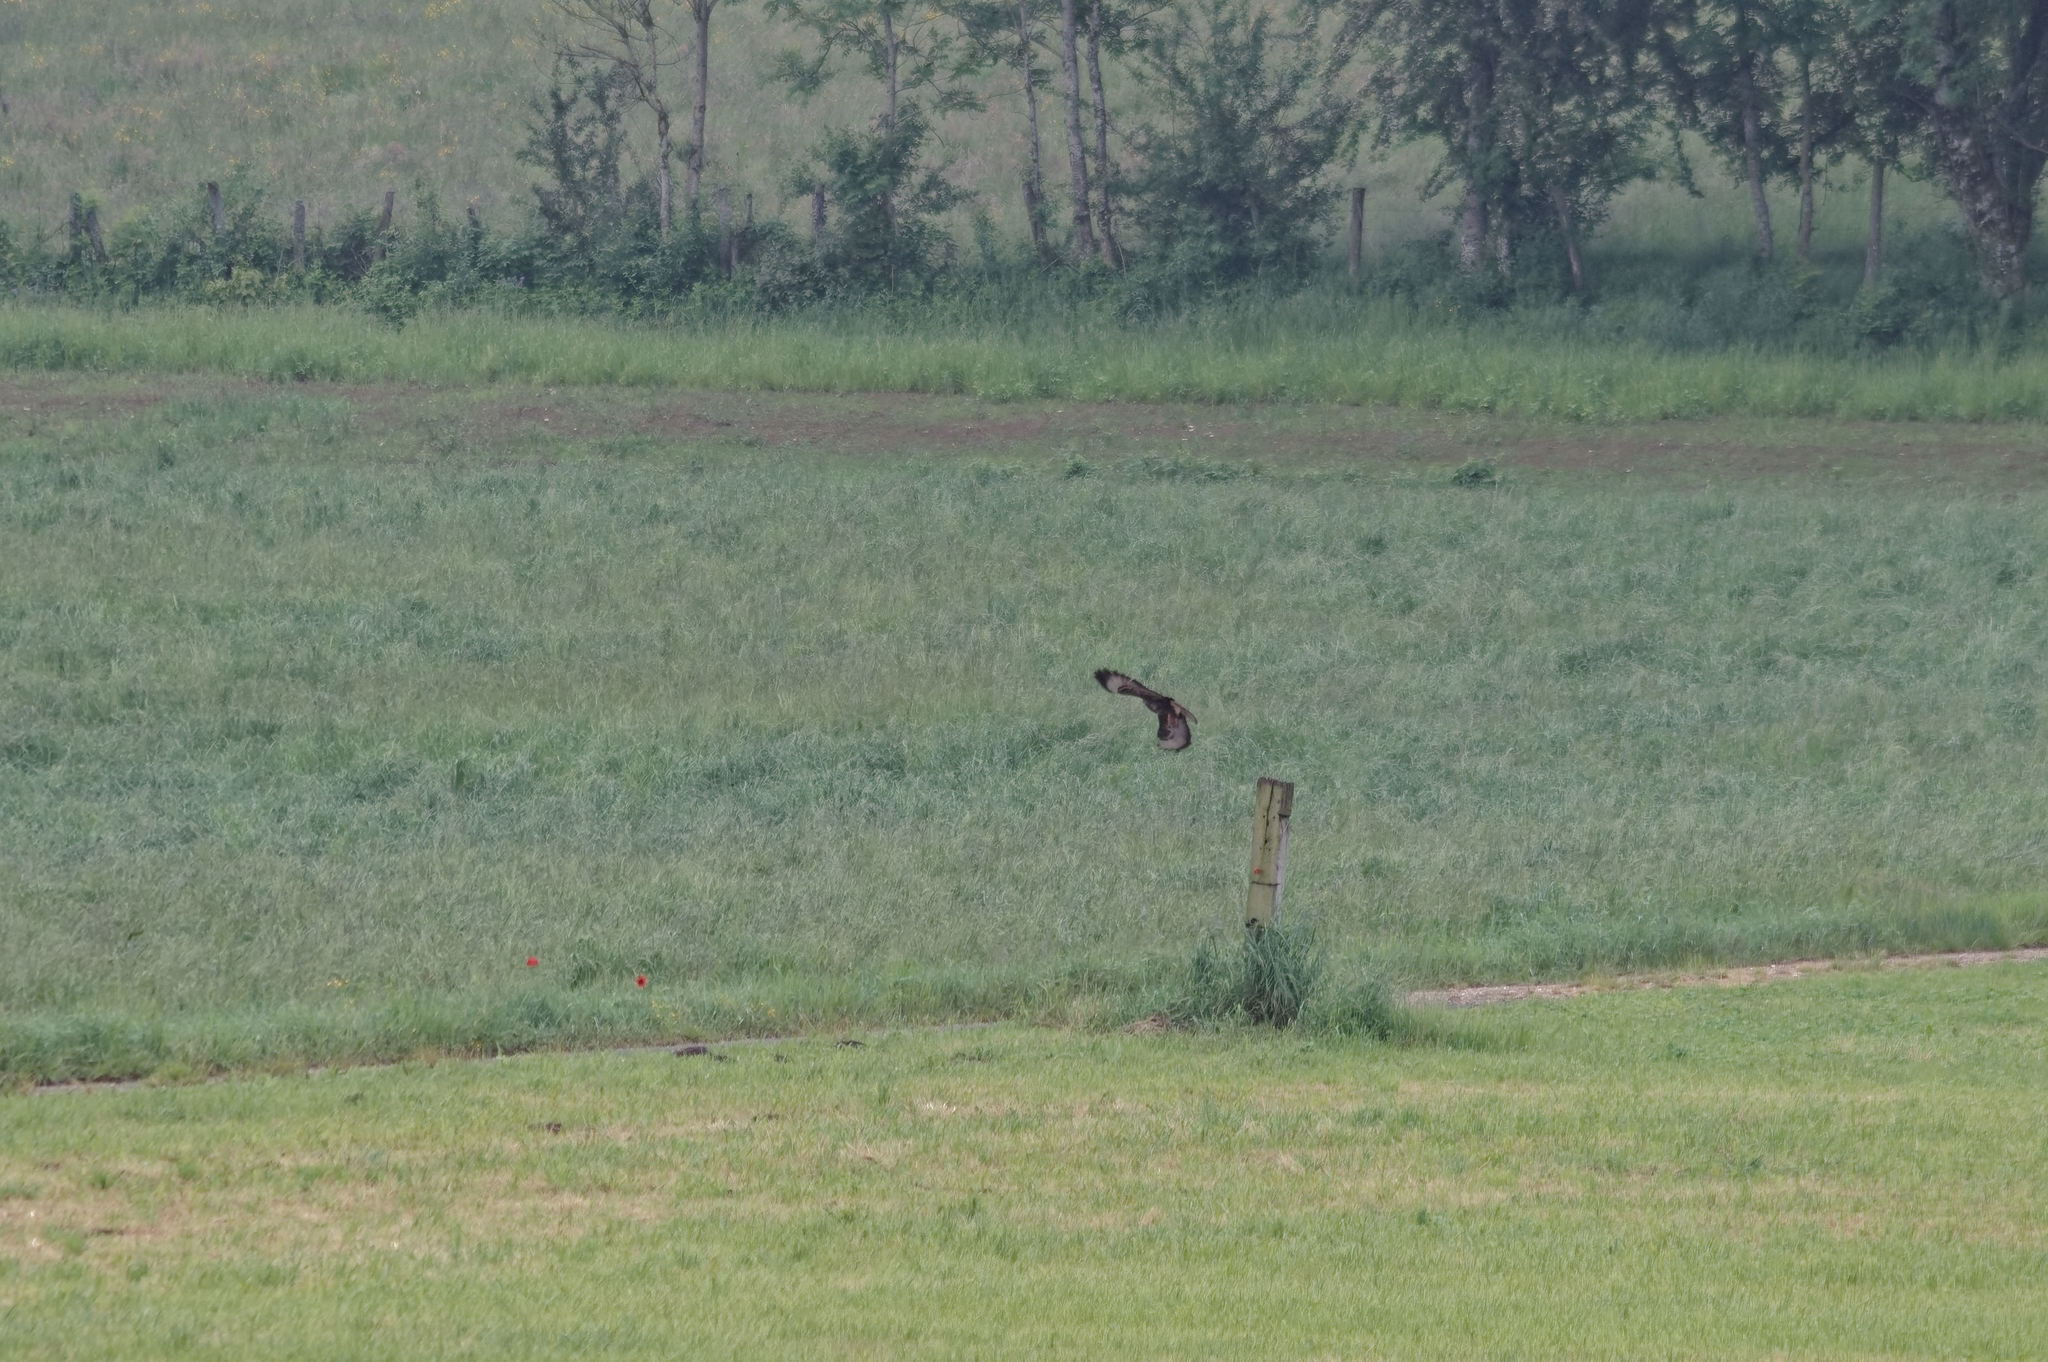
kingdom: Animalia
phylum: Chordata
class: Aves
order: Accipitriformes
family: Accipitridae
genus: Buteo
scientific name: Buteo buteo
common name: Common buzzard
